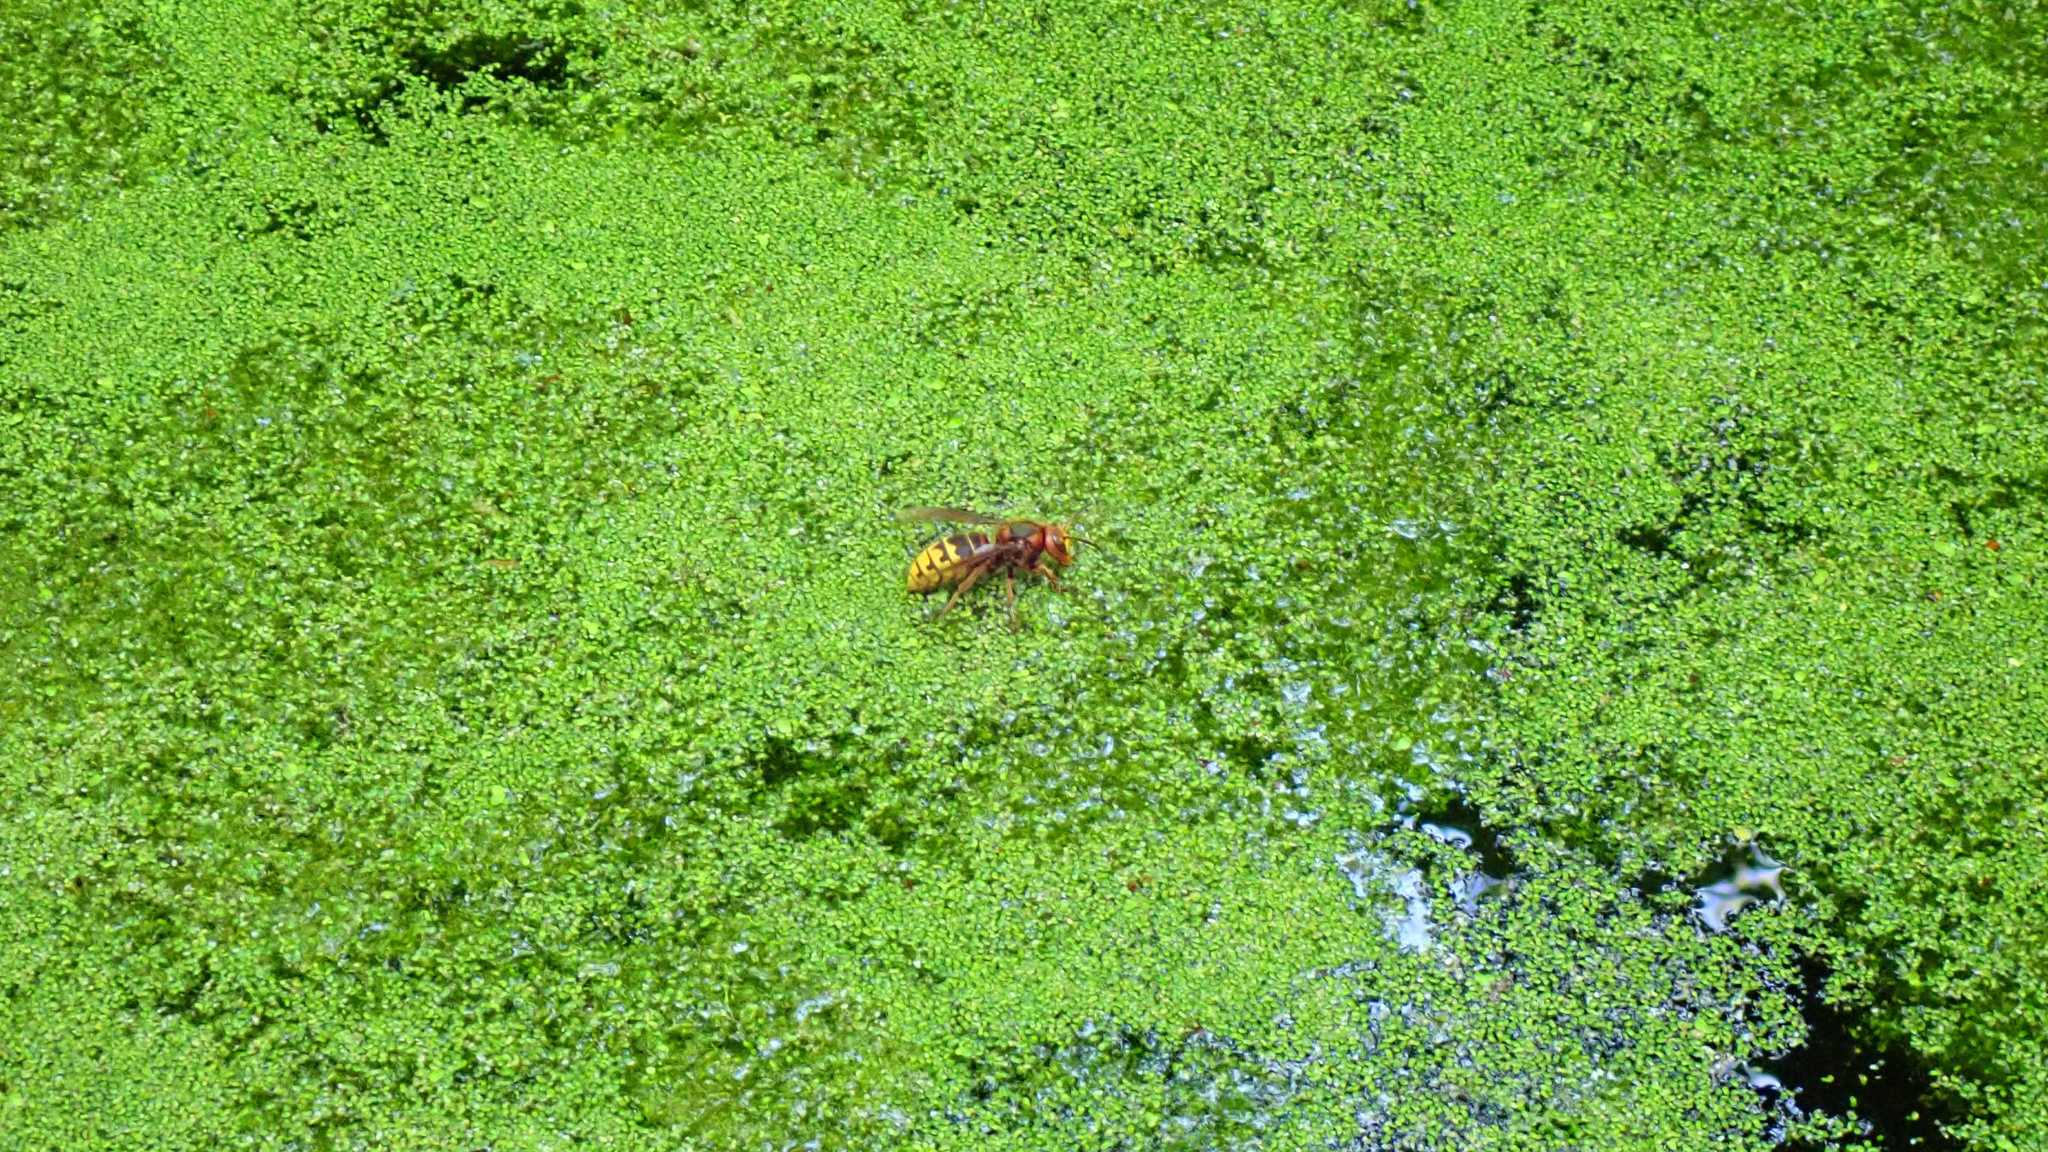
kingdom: Animalia
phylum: Arthropoda
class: Insecta
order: Hymenoptera
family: Vespidae
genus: Vespa
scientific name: Vespa crabro
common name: Hornet
